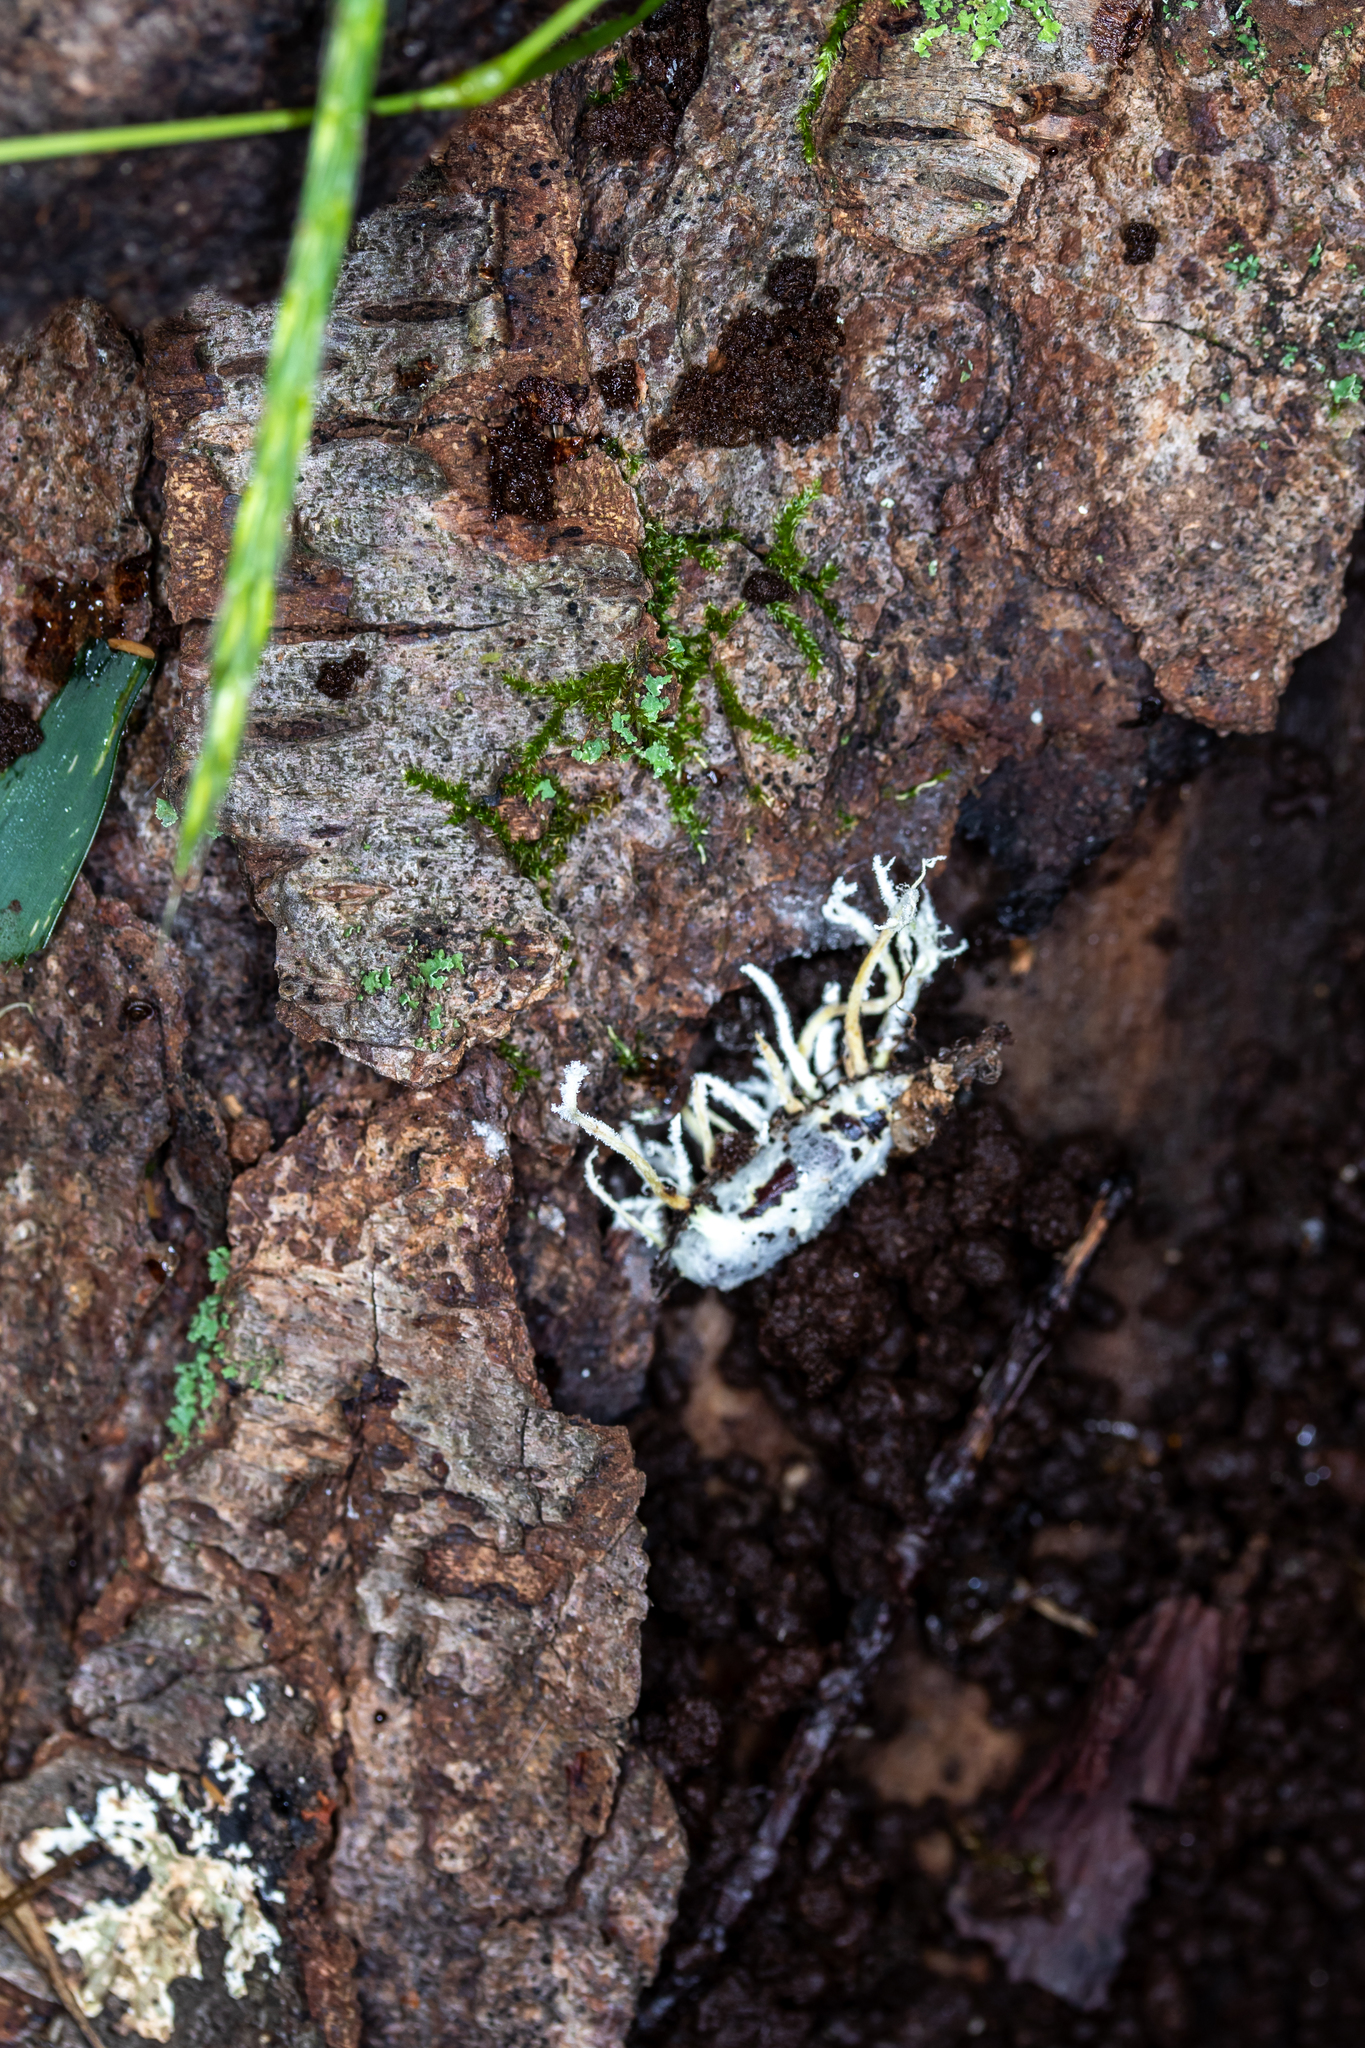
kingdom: Fungi
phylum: Ascomycota
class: Sordariomycetes
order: Hypocreales
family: Cordycipitaceae
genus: Cordyceps
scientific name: Cordyceps tenuipes
